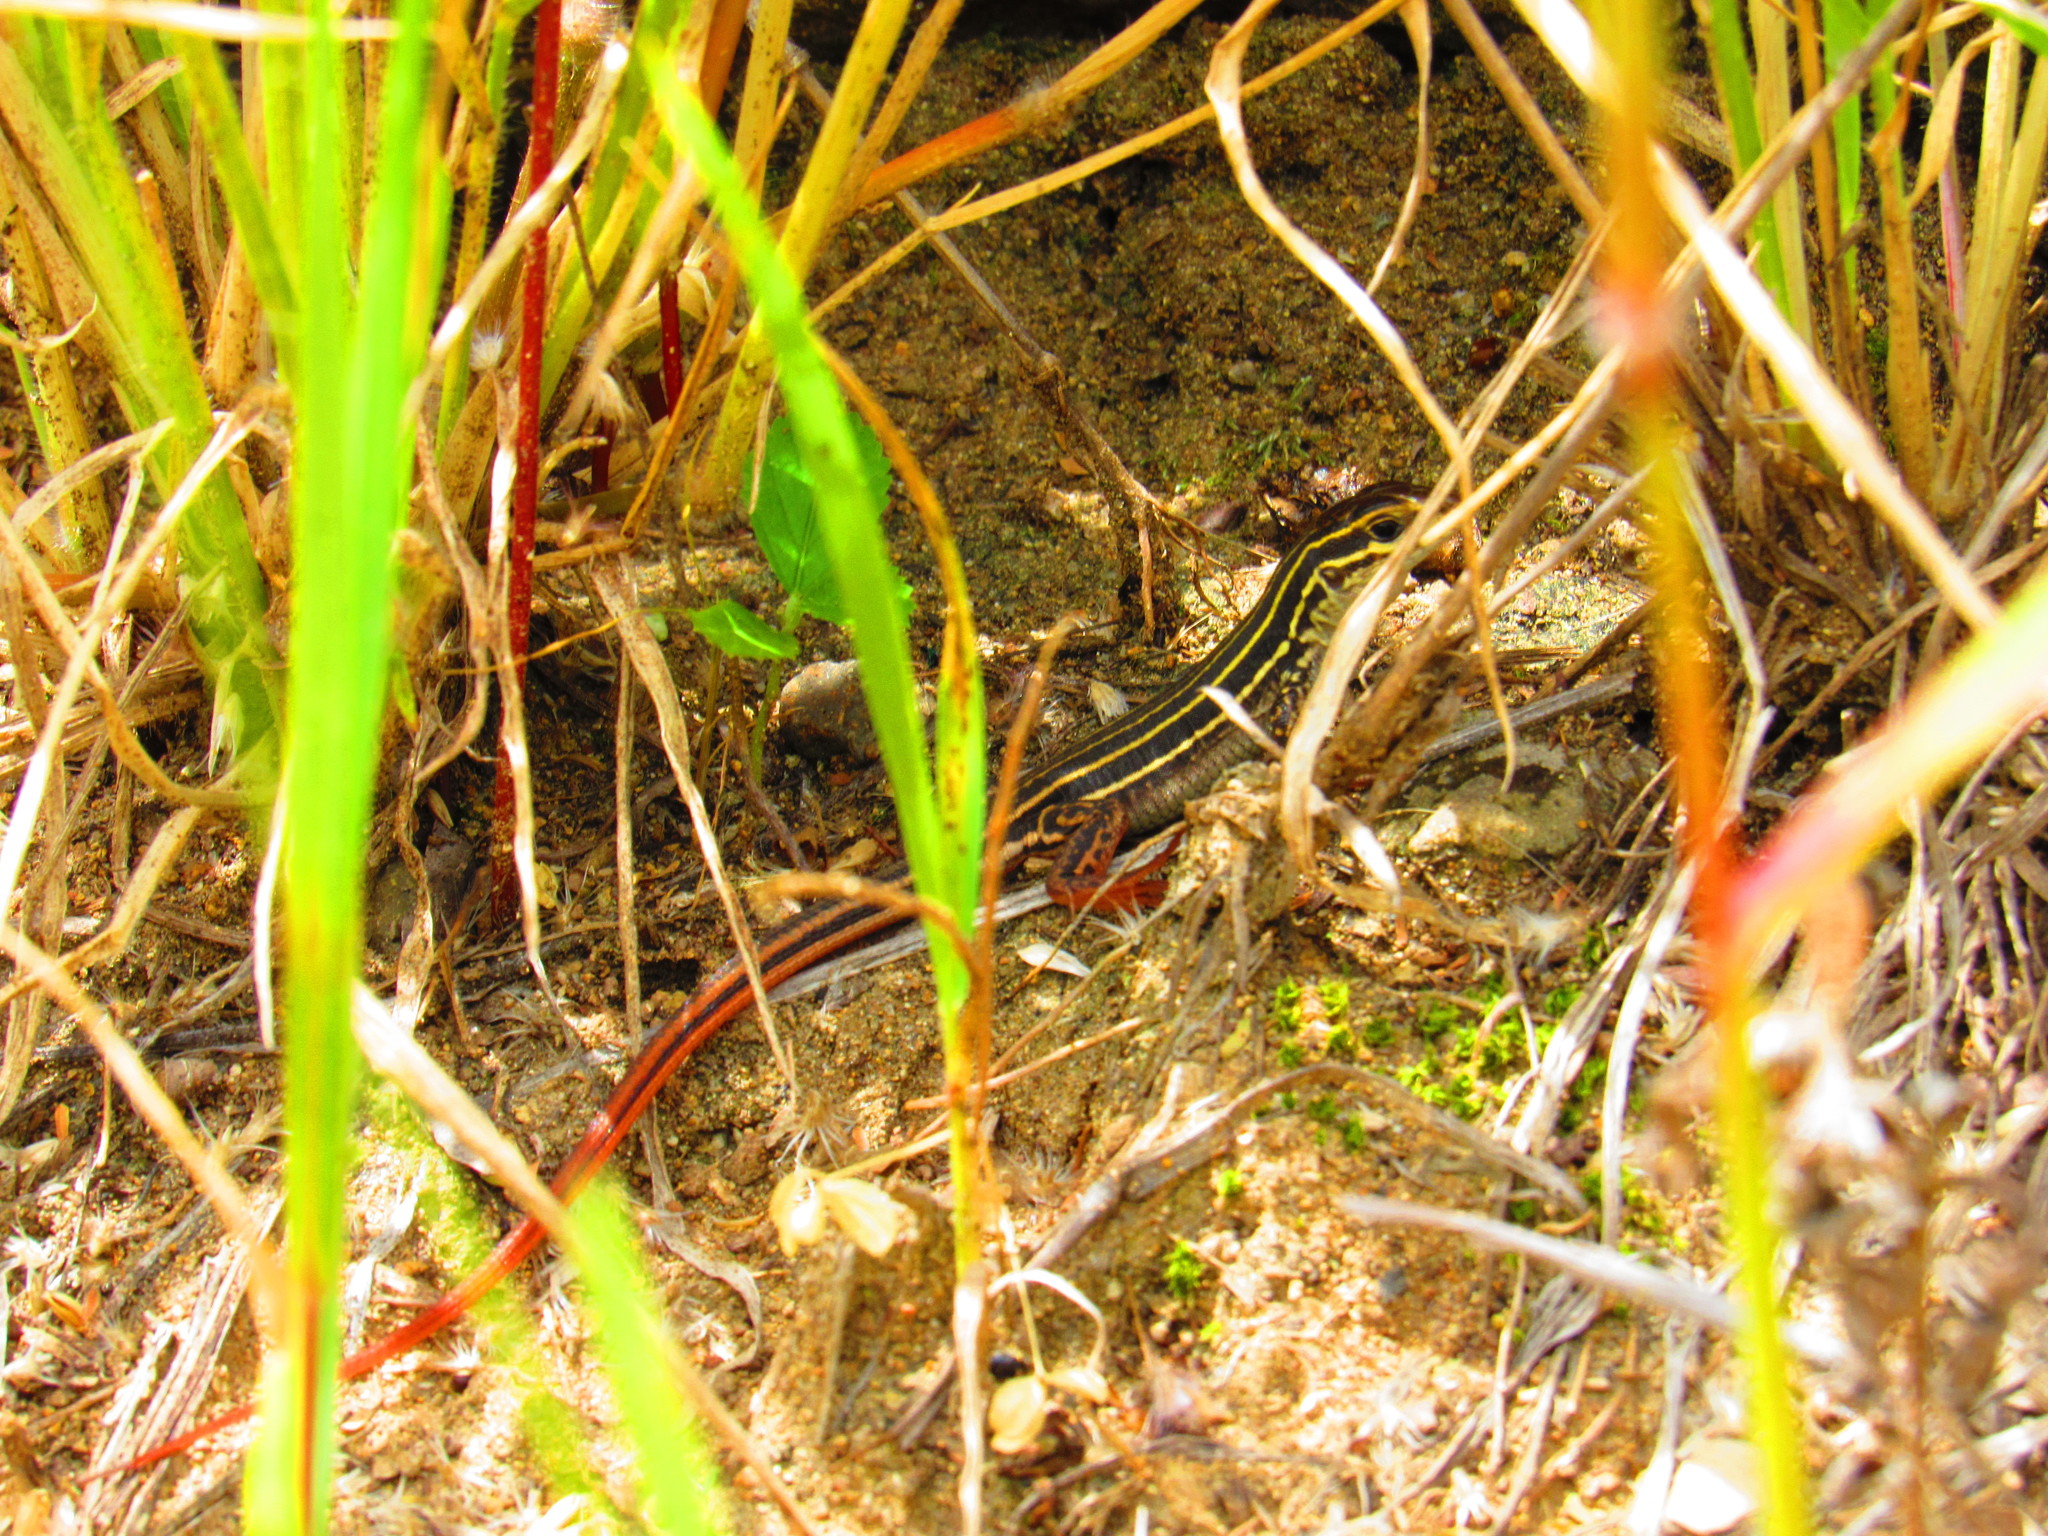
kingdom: Animalia
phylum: Chordata
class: Squamata
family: Teiidae
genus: Aspidoscelis
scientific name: Aspidoscelis gularis
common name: Eastern spotted whiptail
